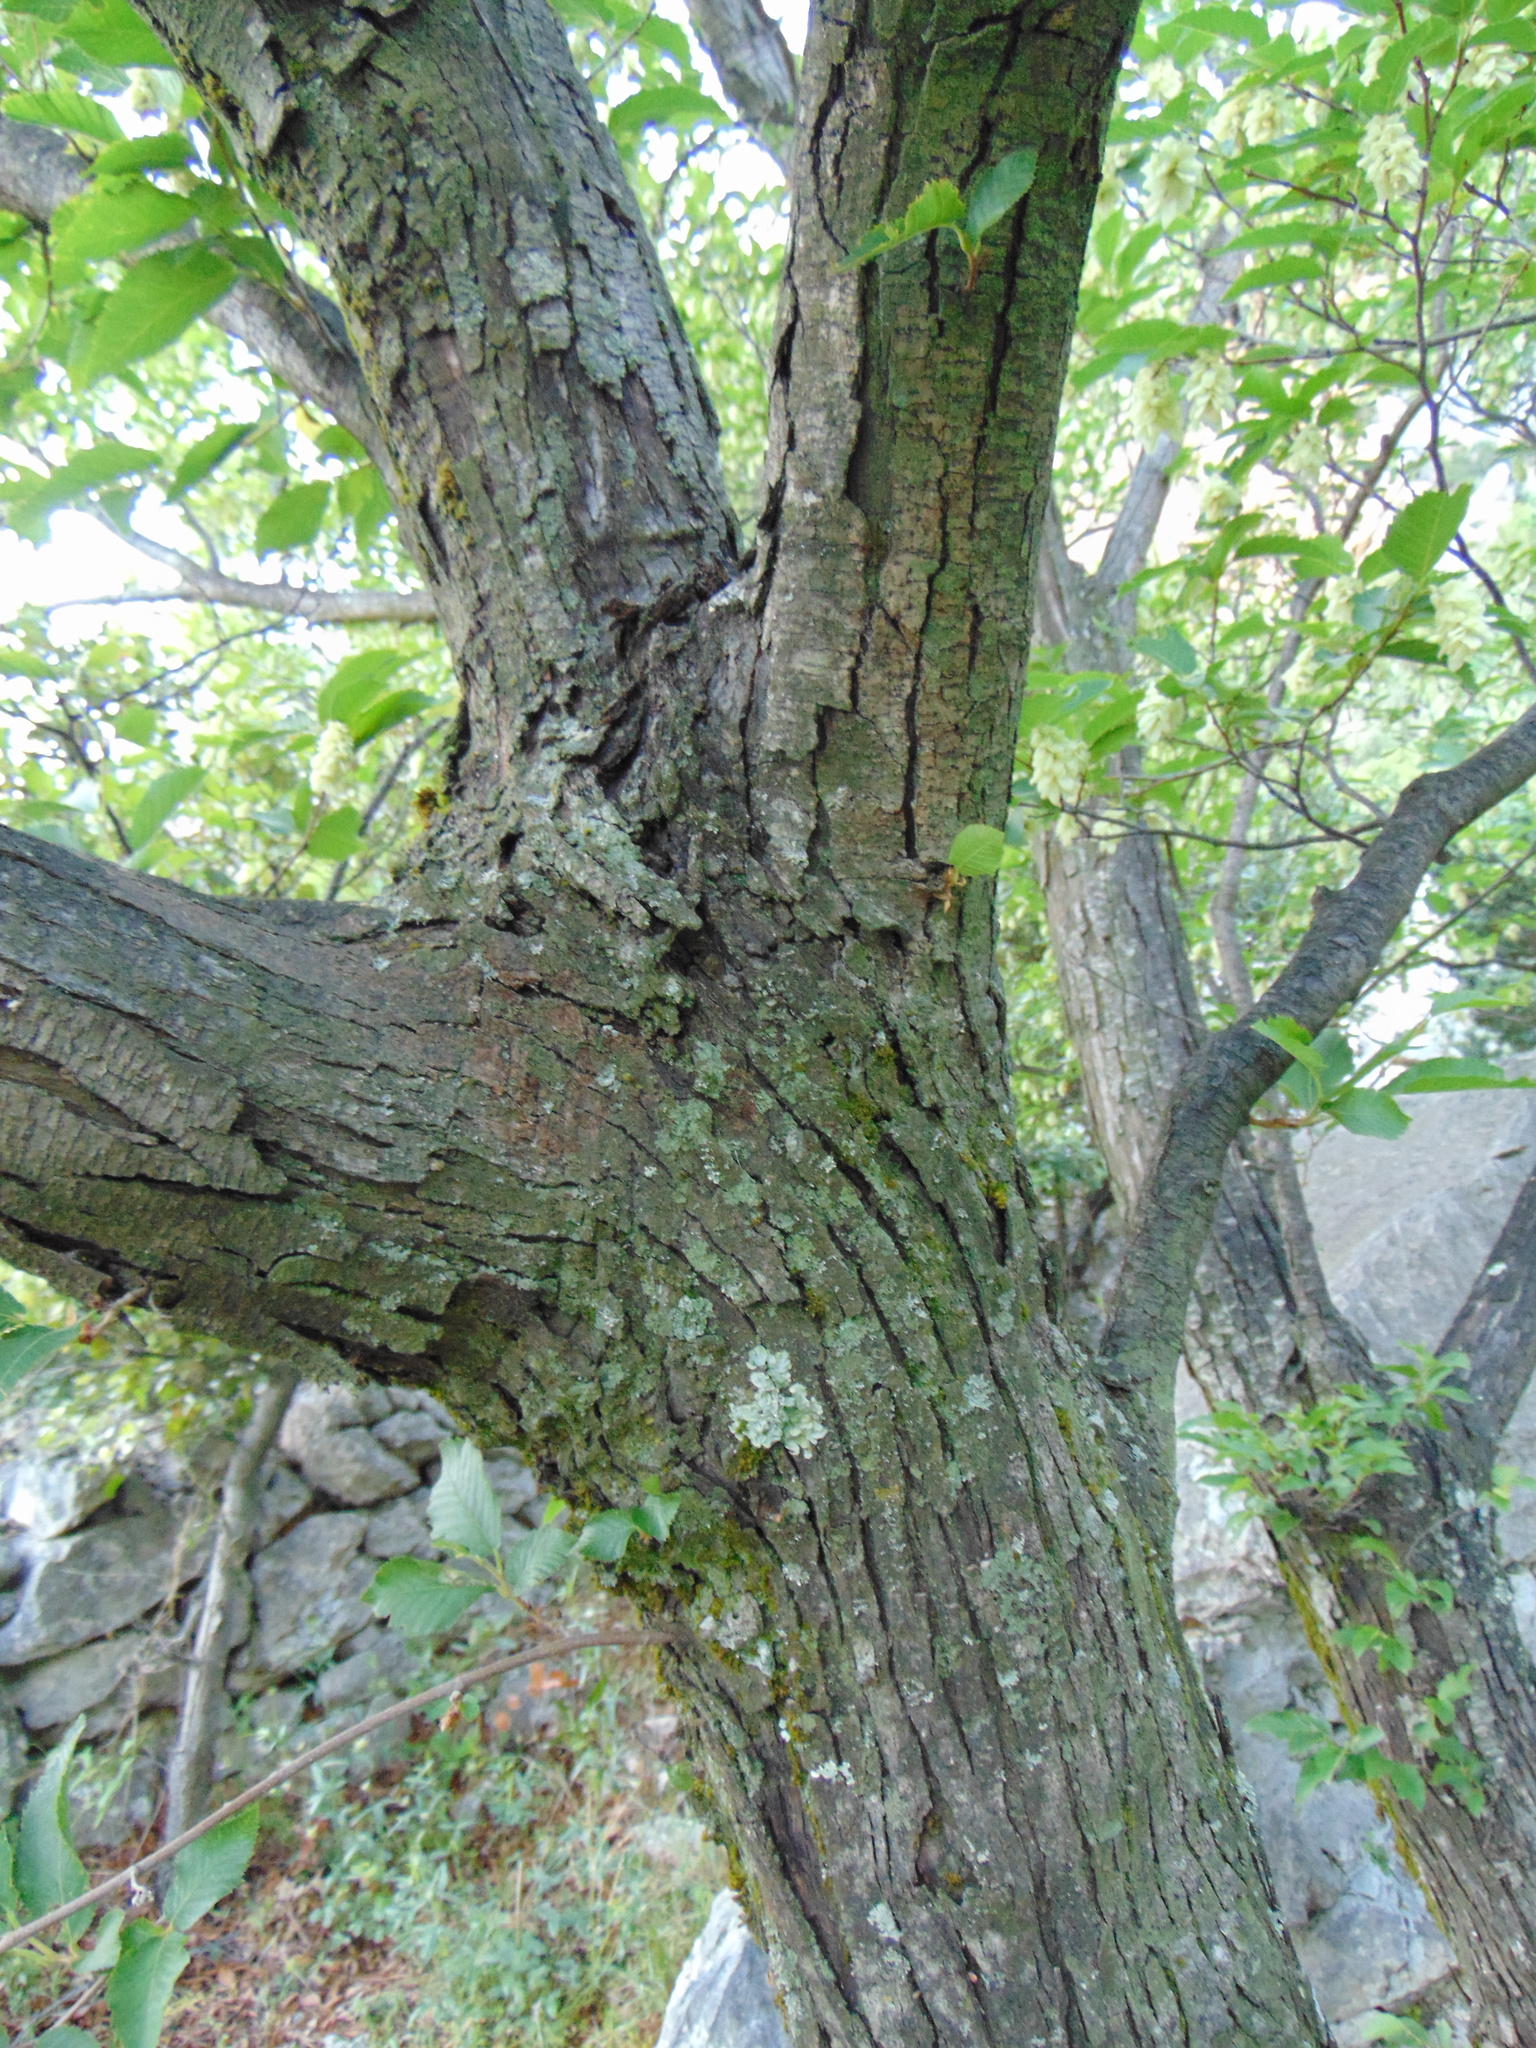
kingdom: Plantae
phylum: Tracheophyta
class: Magnoliopsida
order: Fagales
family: Betulaceae
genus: Ostrya
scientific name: Ostrya carpinifolia
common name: European hop-hornbeam
